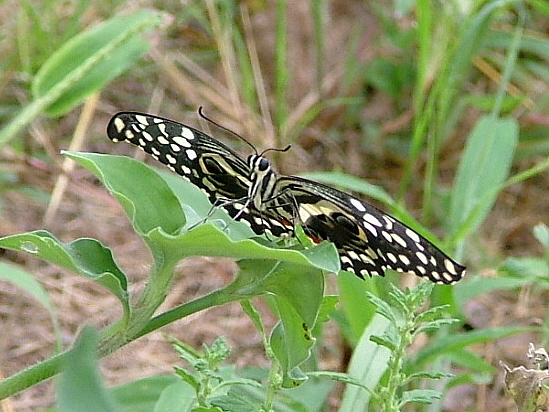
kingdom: Animalia
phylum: Arthropoda
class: Insecta
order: Lepidoptera
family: Papilionidae
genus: Papilio
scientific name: Papilio demodocus
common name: Christmas butterfly
